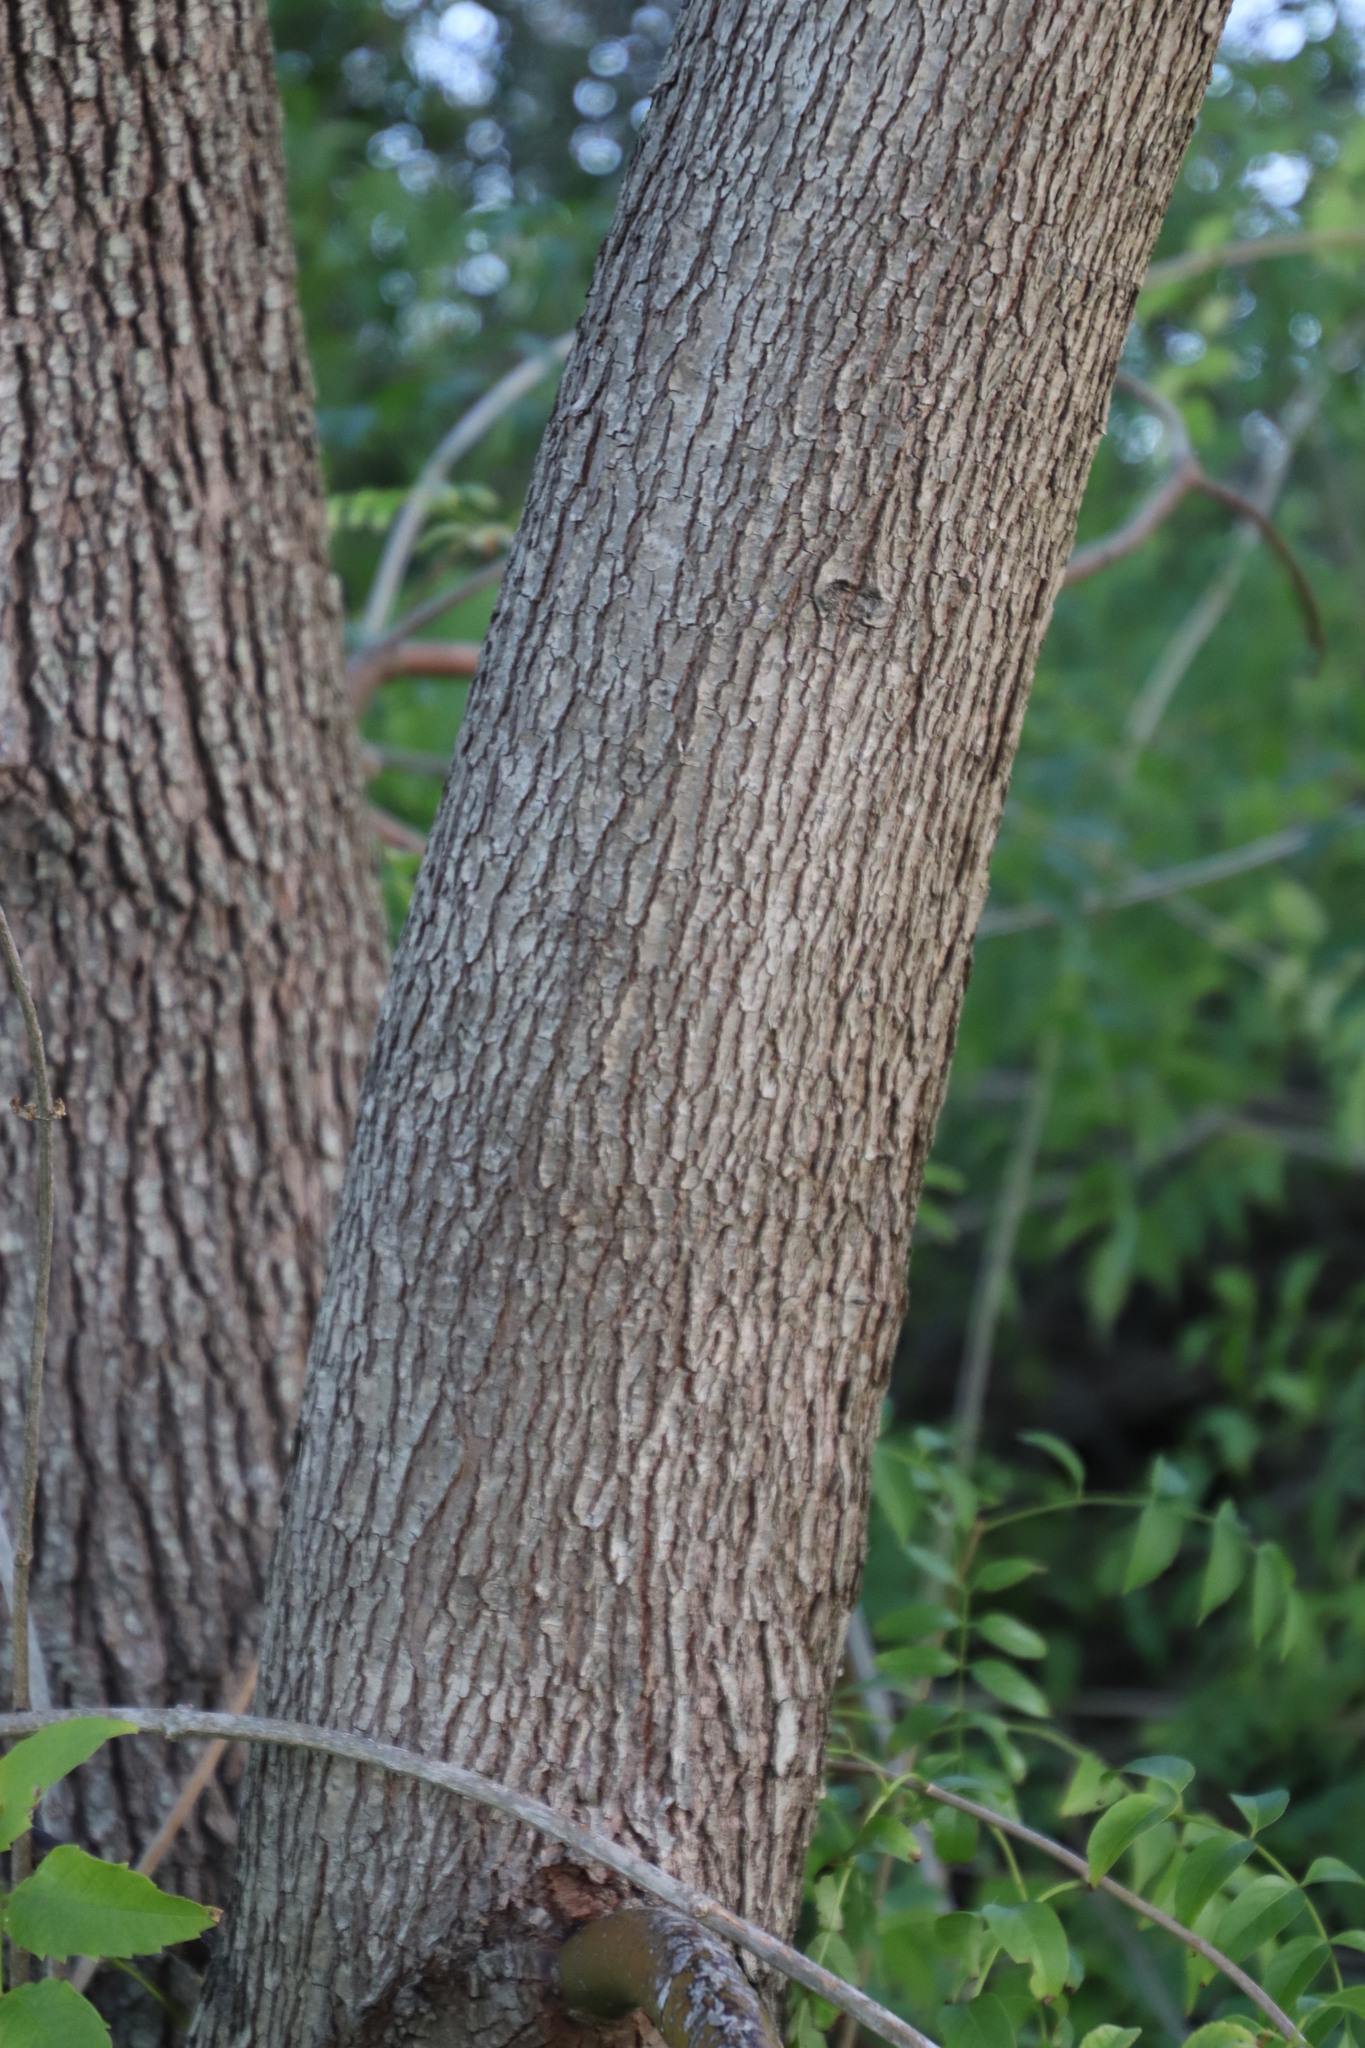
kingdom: Plantae
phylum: Tracheophyta
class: Magnoliopsida
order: Laurales
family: Lauraceae
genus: Cinnamomum
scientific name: Cinnamomum camphora
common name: Camphortree
